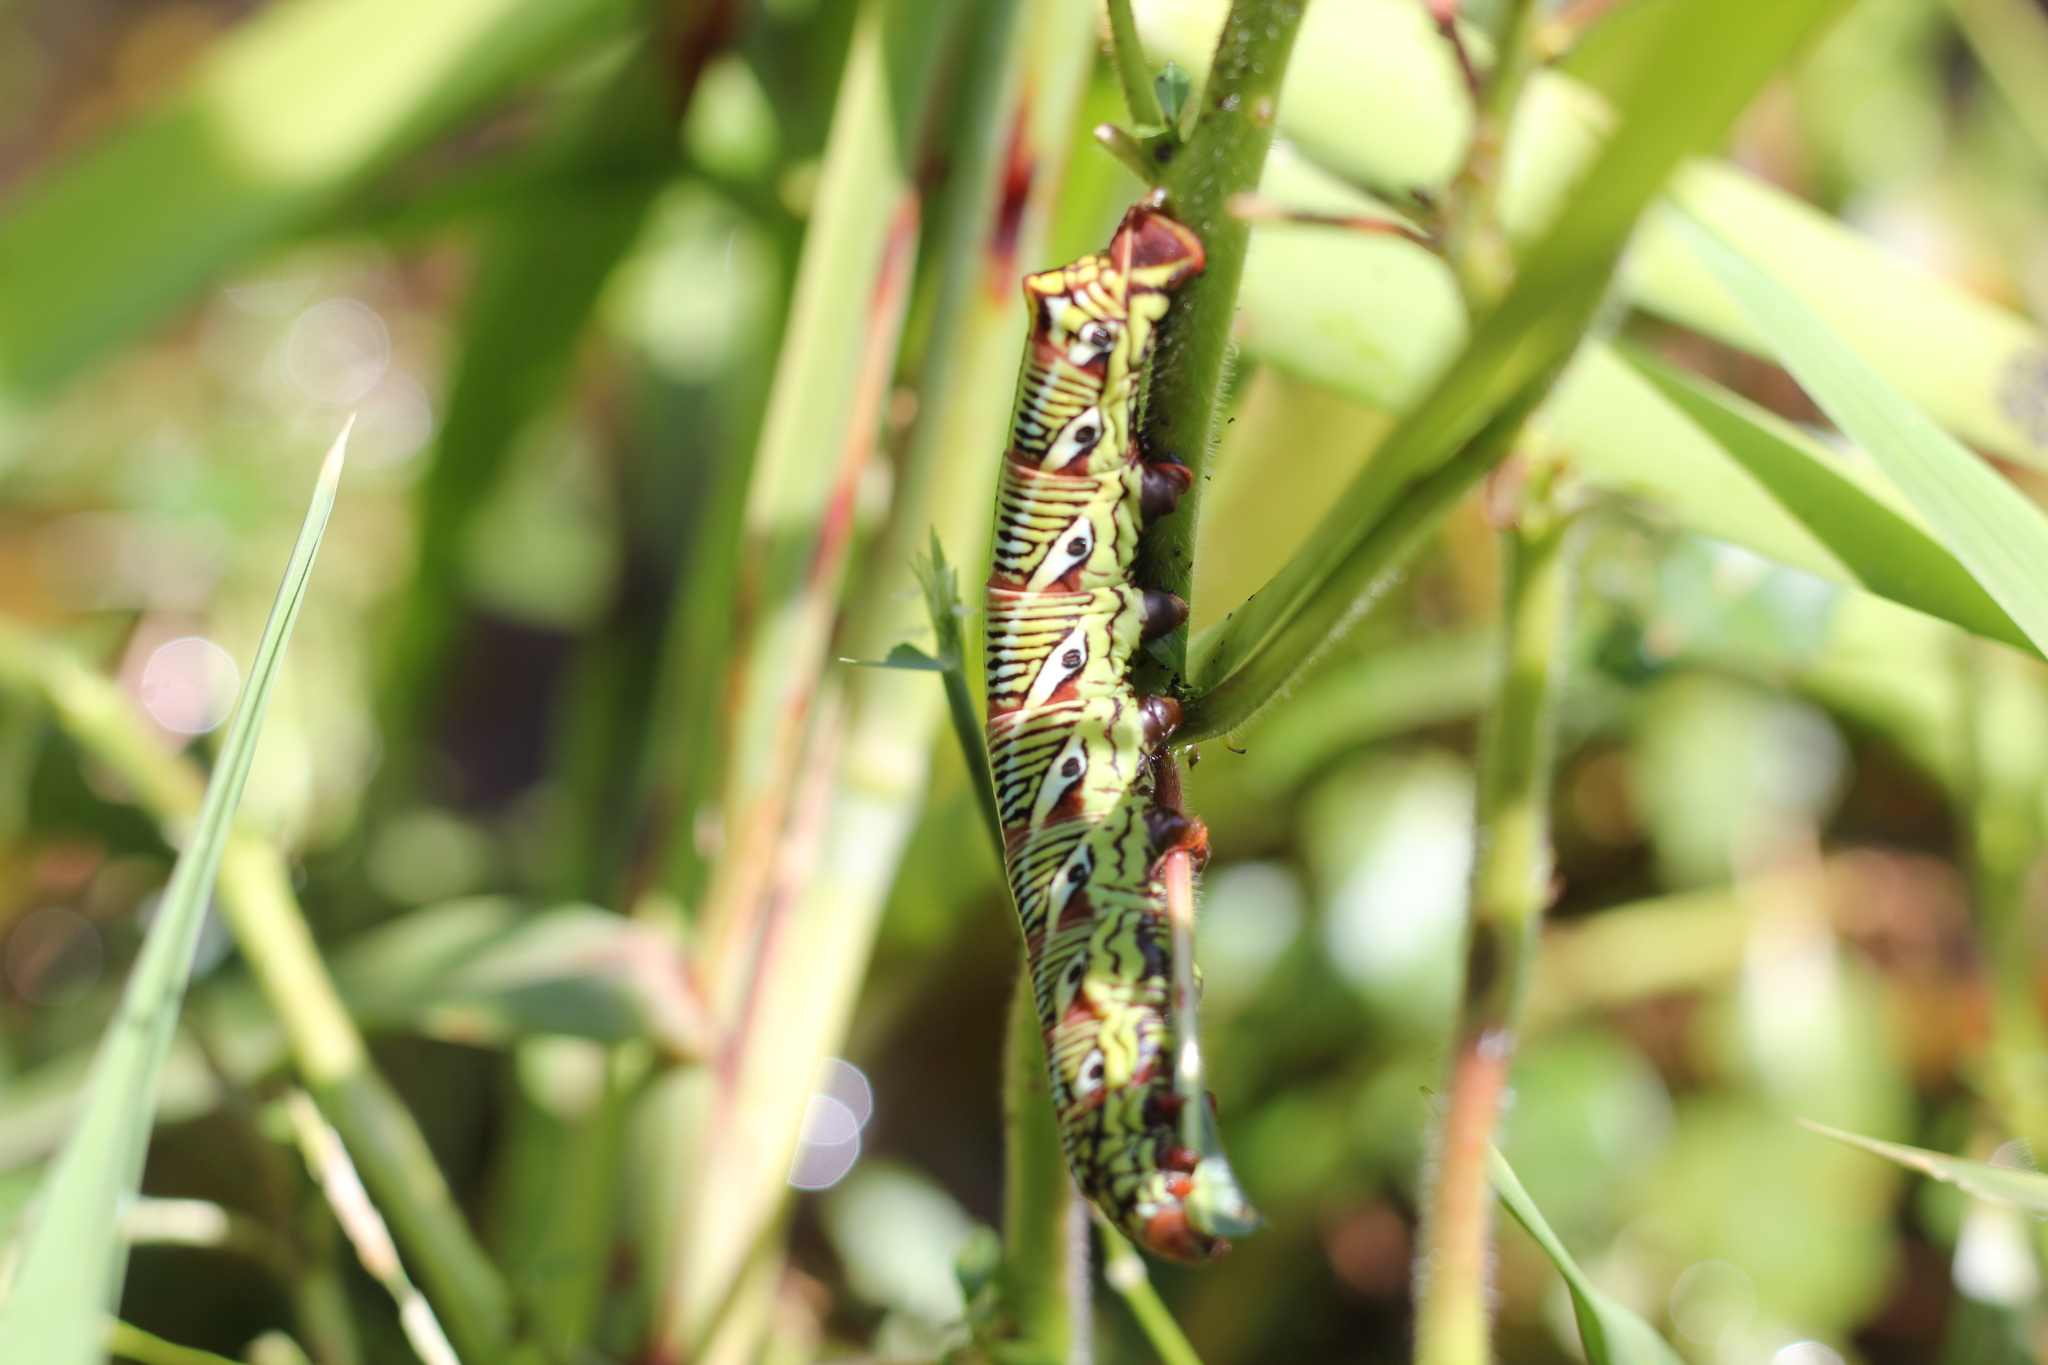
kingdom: Animalia
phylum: Arthropoda
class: Insecta
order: Lepidoptera
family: Sphingidae
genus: Eumorpha
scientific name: Eumorpha fasciatus
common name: Banded sphinx
